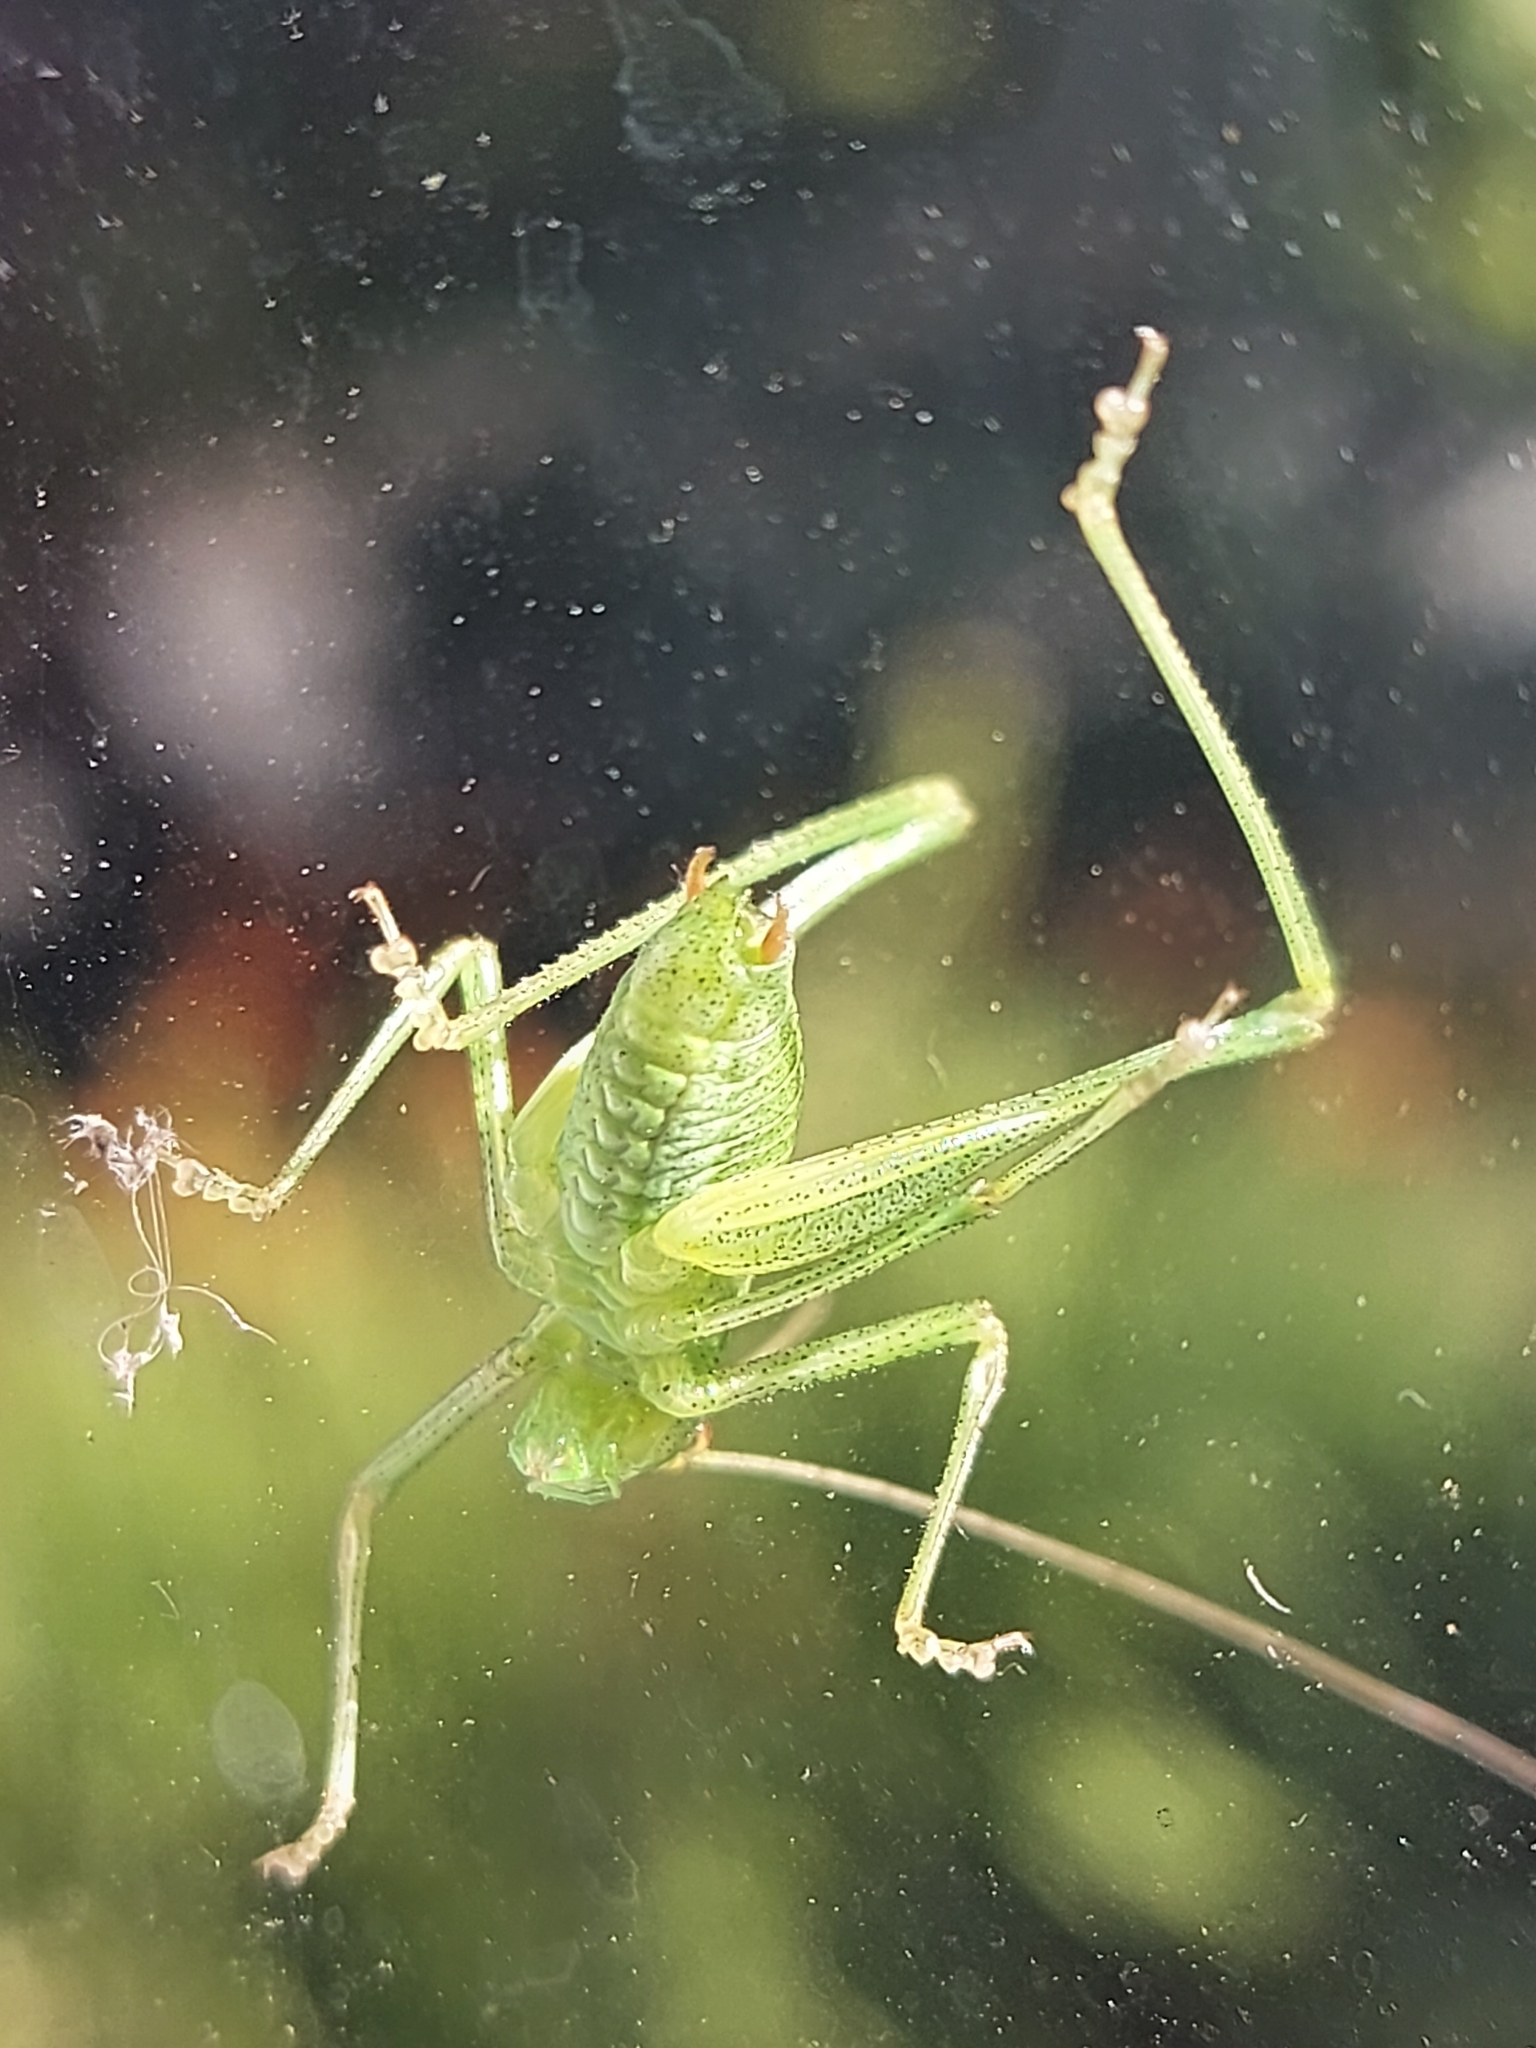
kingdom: Animalia
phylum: Arthropoda
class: Insecta
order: Orthoptera
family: Tettigoniidae
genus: Leptophyes
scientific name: Leptophyes punctatissima
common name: Speckled bush-cricket
